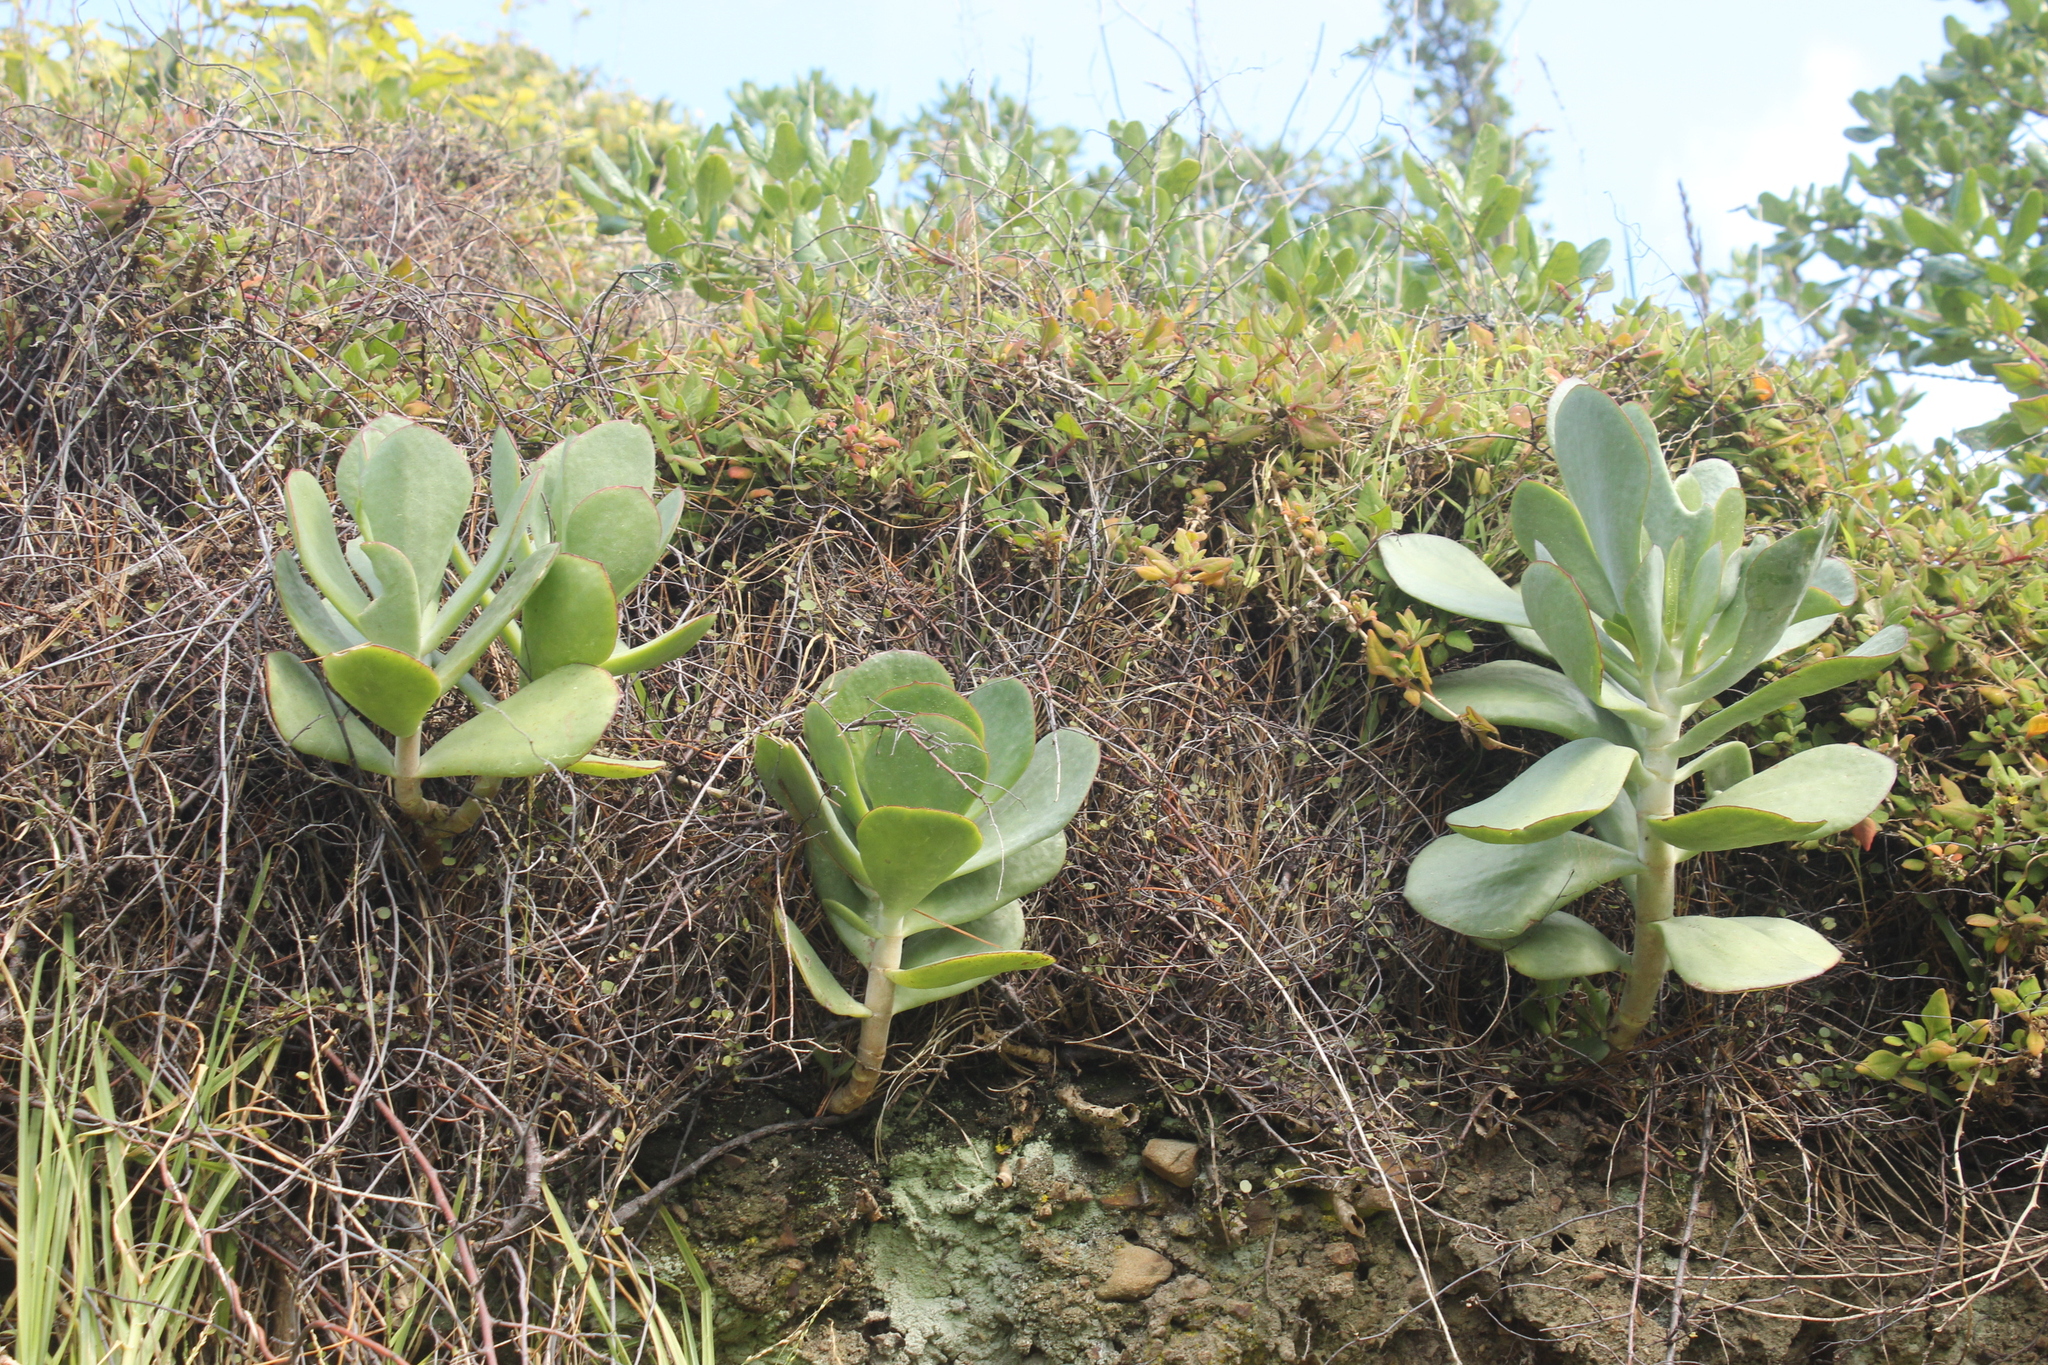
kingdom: Plantae
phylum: Tracheophyta
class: Magnoliopsida
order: Saxifragales
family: Crassulaceae
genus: Cotyledon
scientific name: Cotyledon orbiculata
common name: Pig's ear
